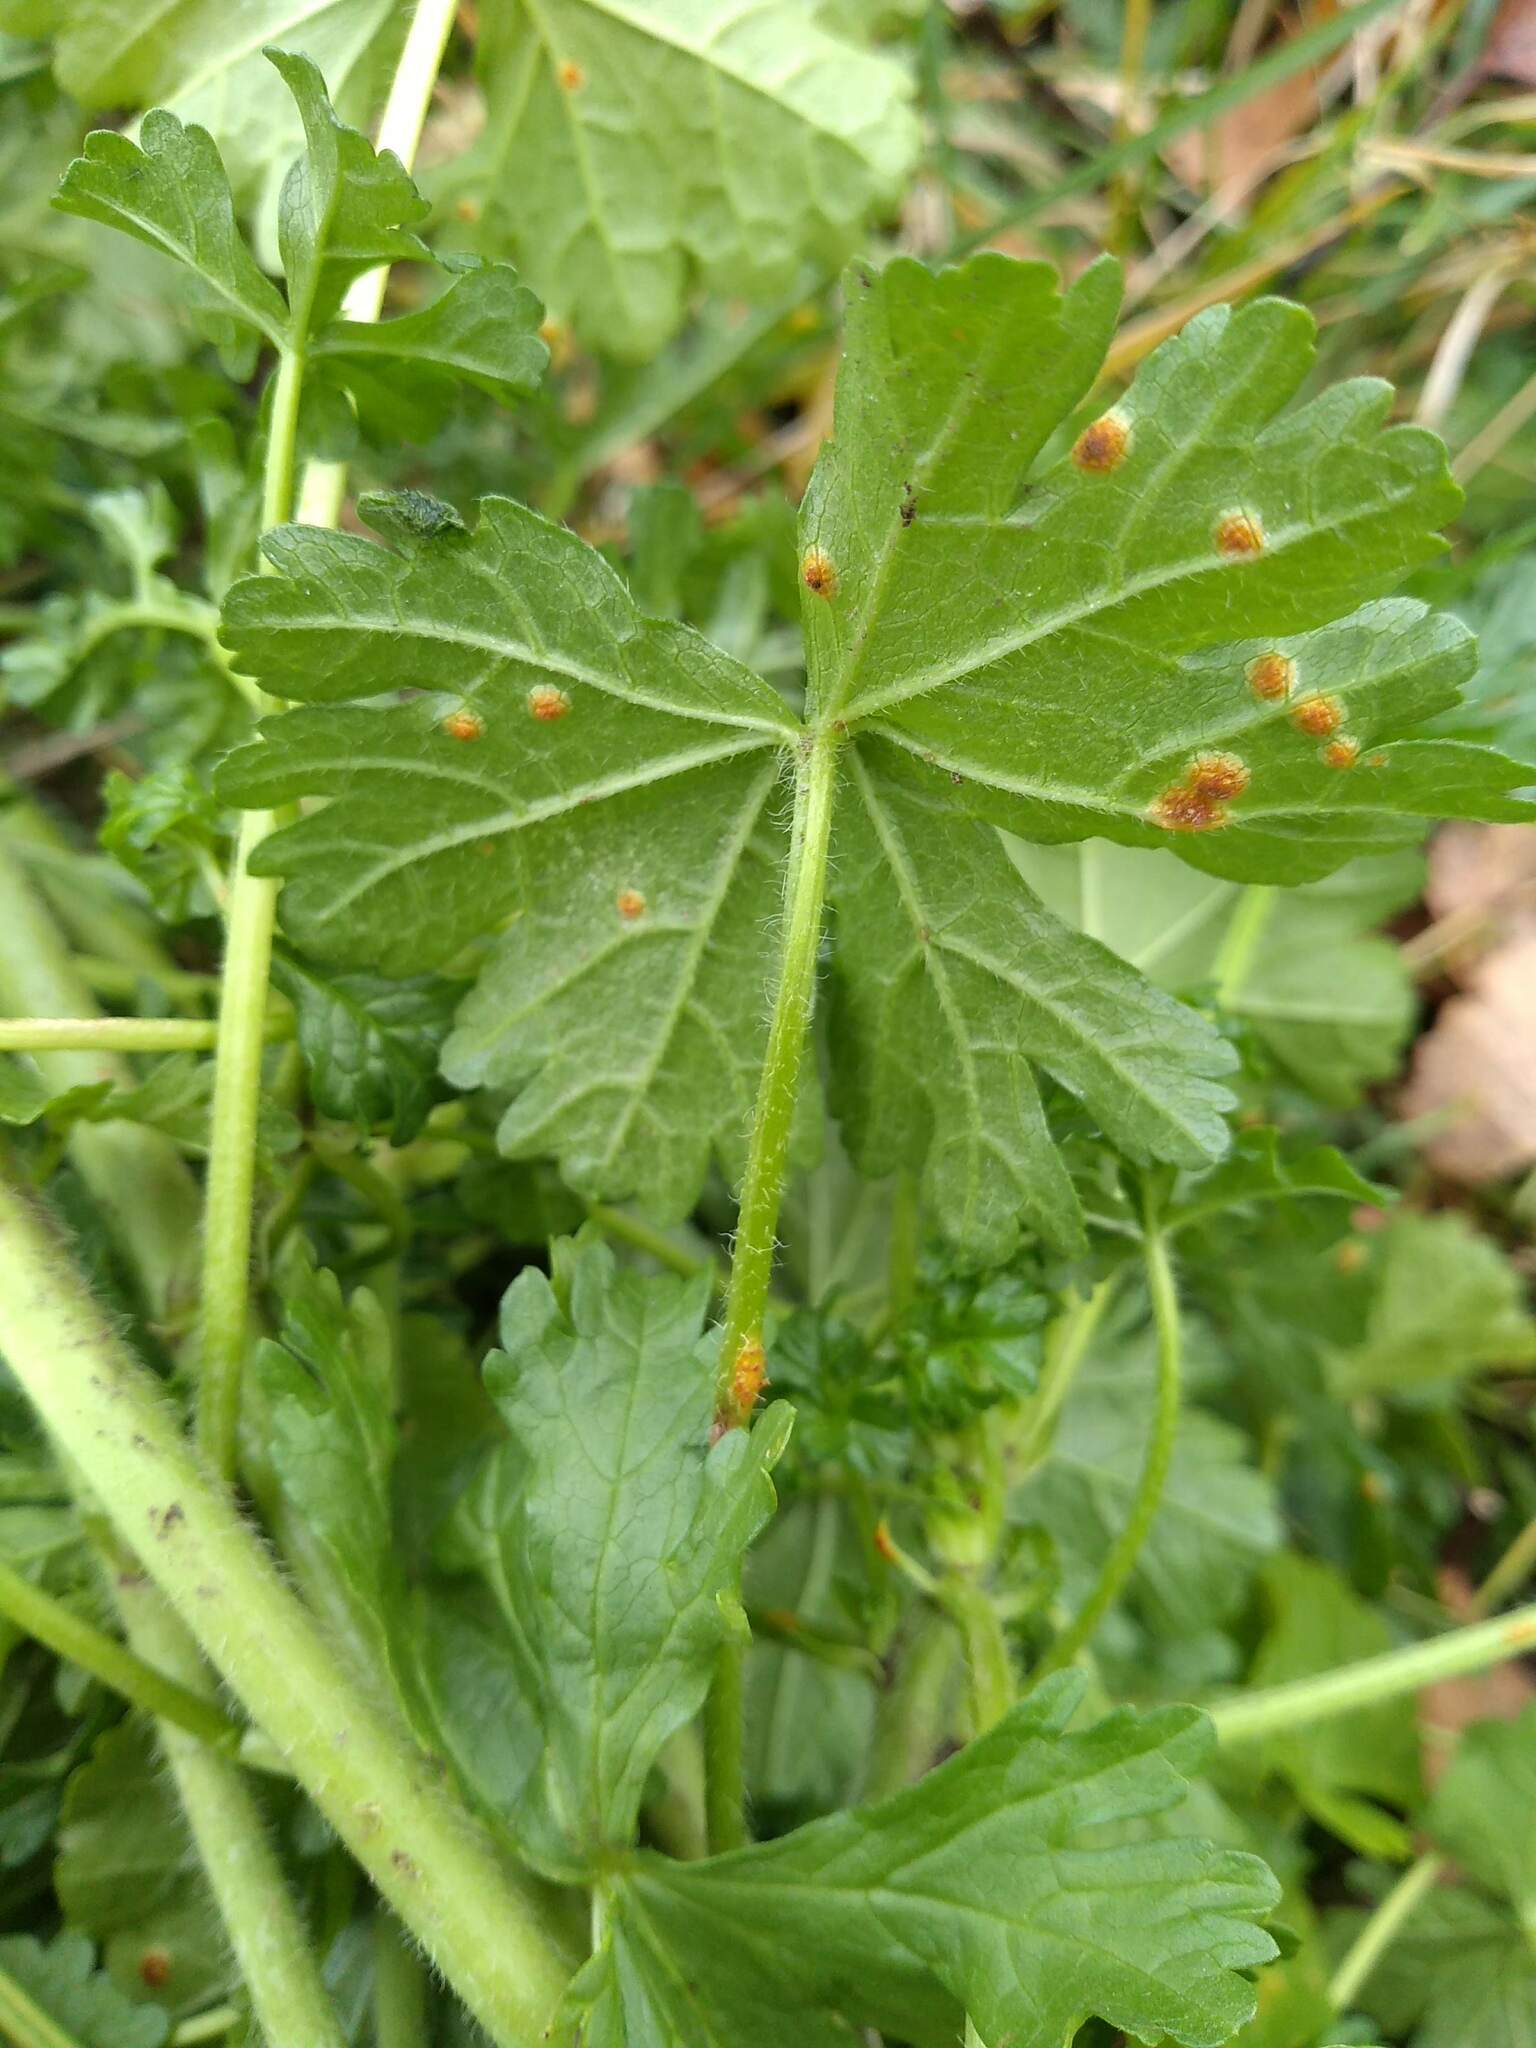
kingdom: Fungi
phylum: Basidiomycota
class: Pucciniomycetes
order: Pucciniales
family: Pucciniaceae
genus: Puccinia
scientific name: Puccinia malvacearum
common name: Hollyhock rust
